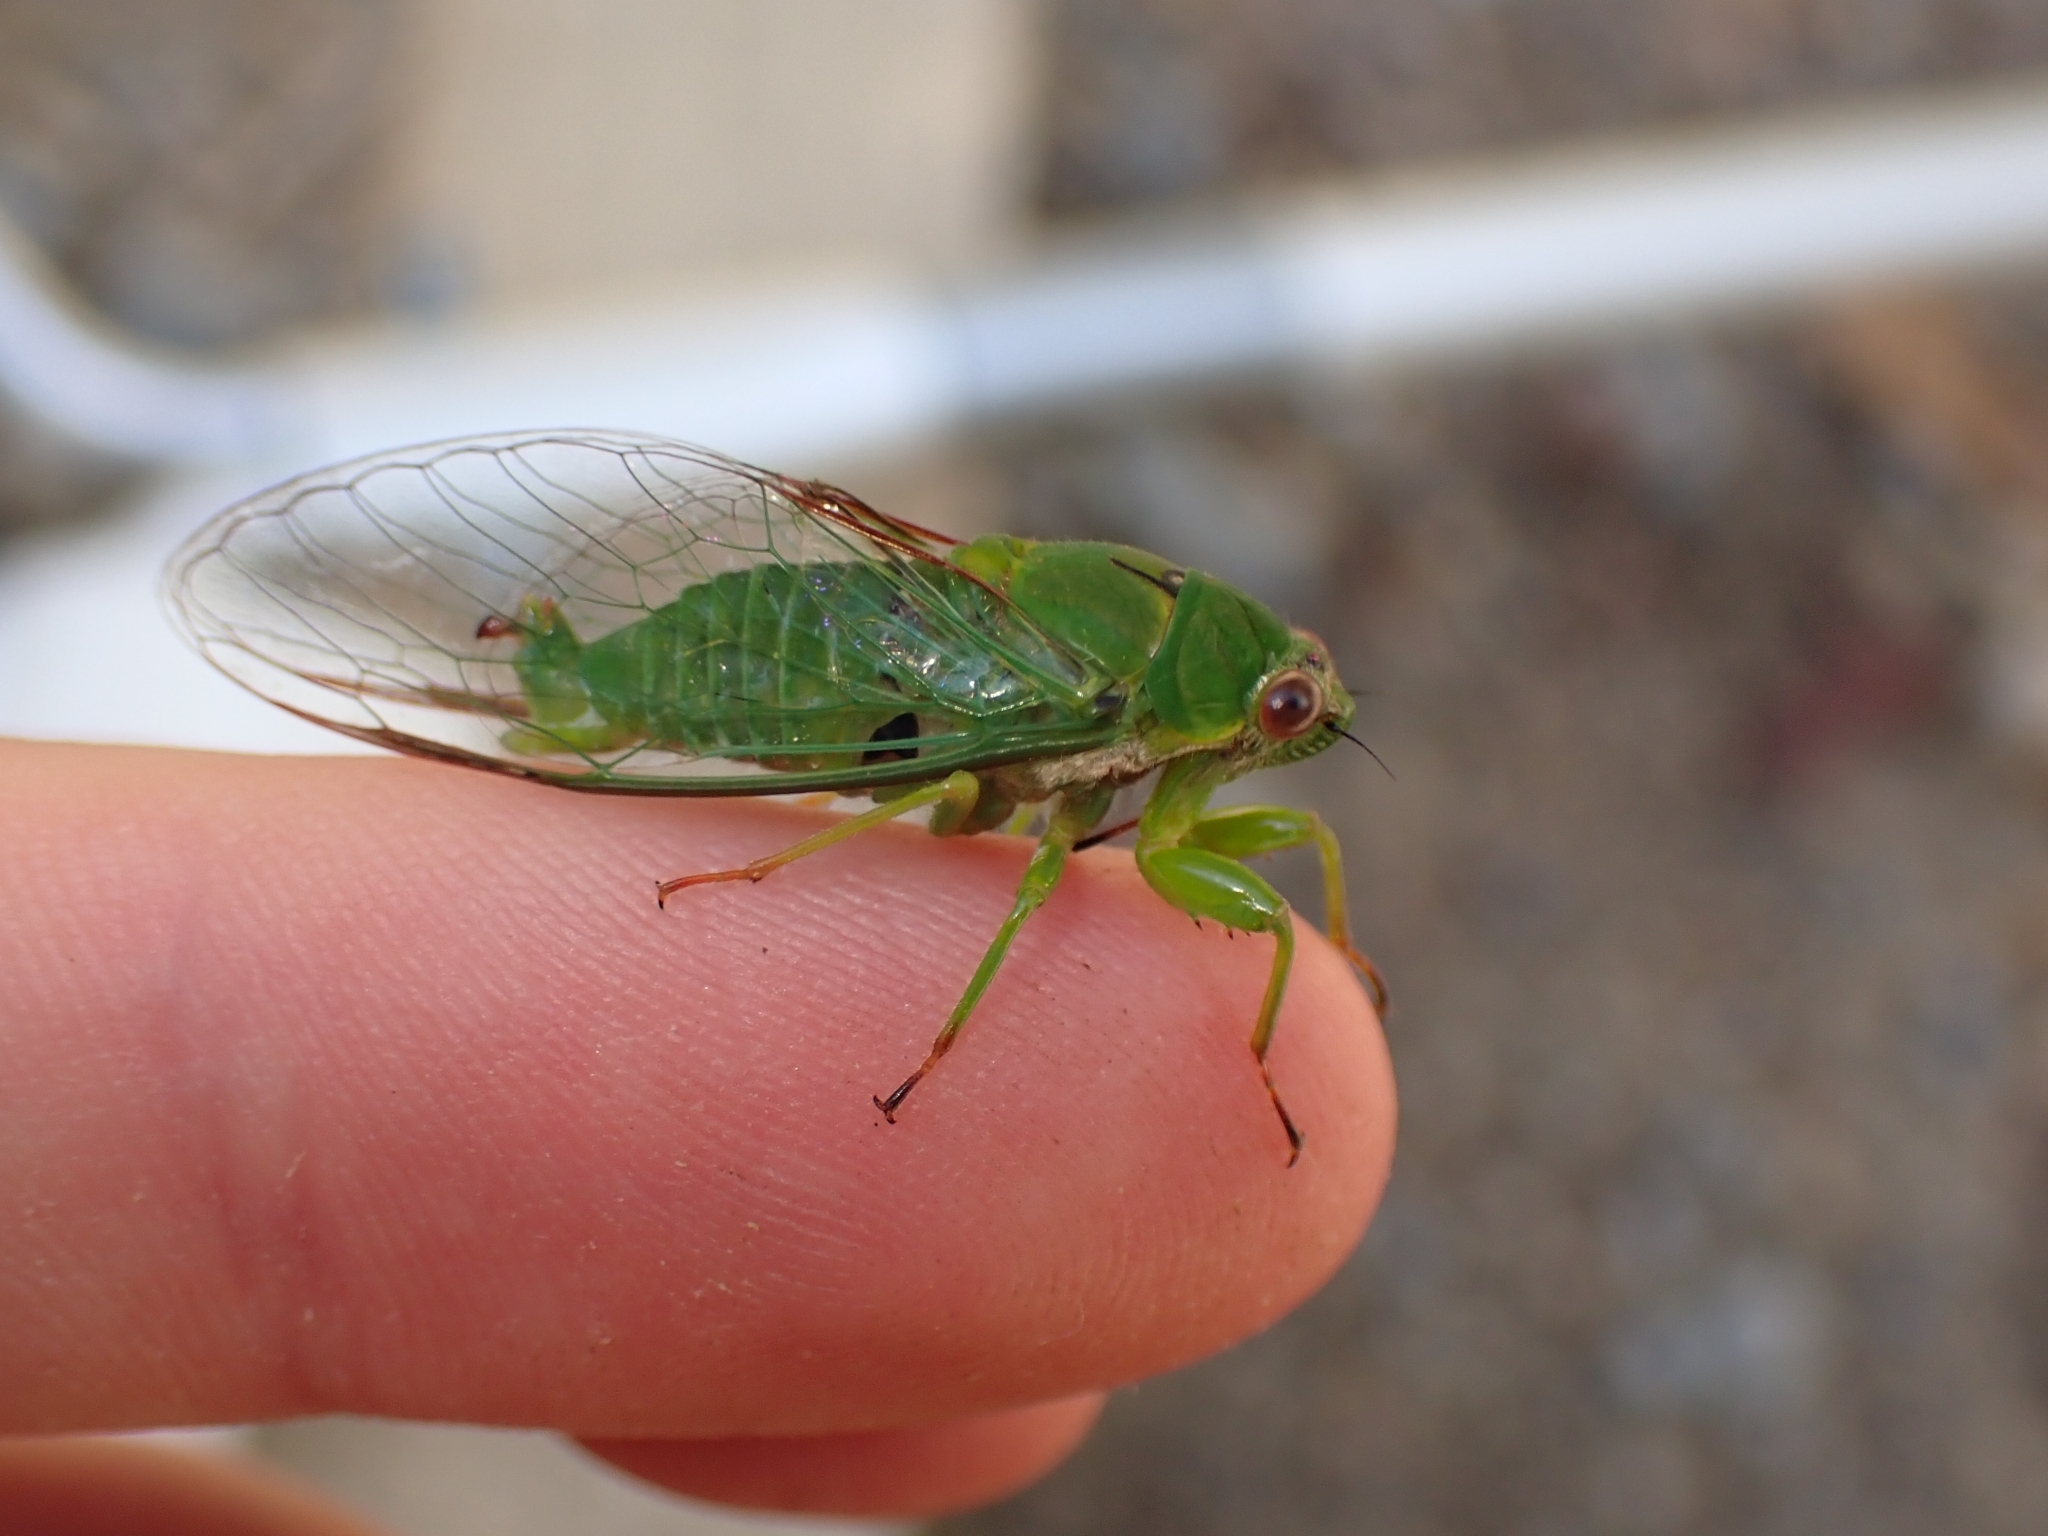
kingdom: Animalia
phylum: Arthropoda
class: Insecta
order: Hemiptera
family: Cicadidae
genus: Kikihia
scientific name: Kikihia ochrina
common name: April green cicada
